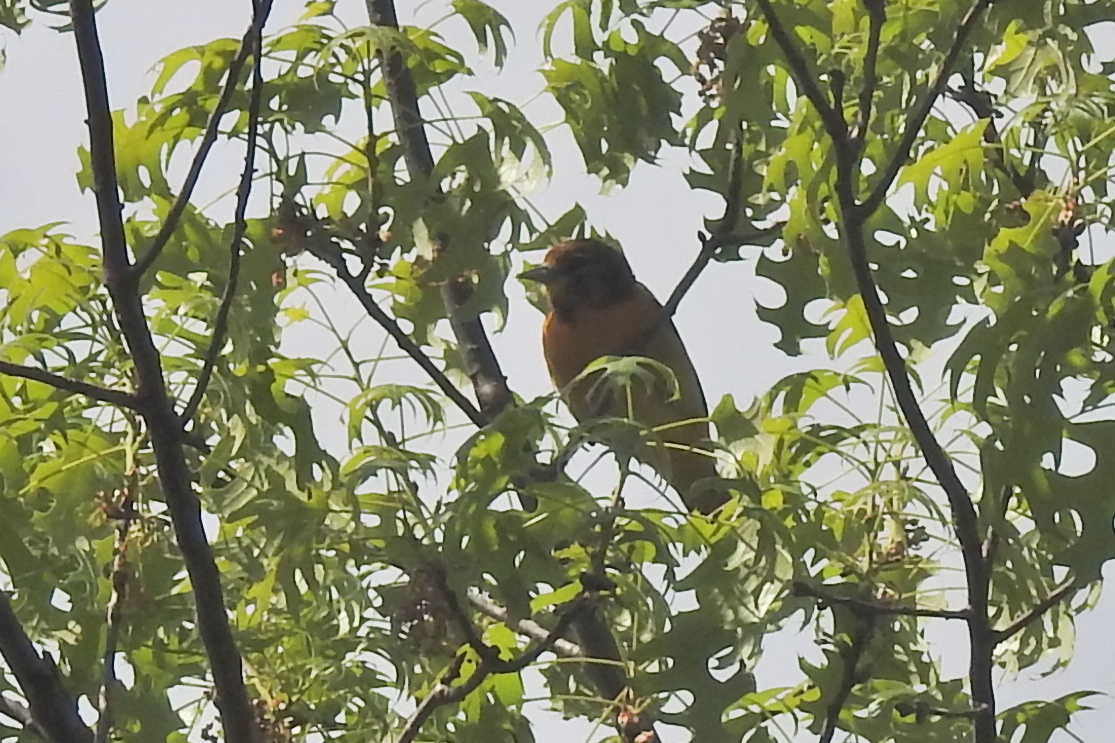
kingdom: Animalia
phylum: Chordata
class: Aves
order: Passeriformes
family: Icteridae
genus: Icterus
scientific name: Icterus galbula
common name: Baltimore oriole
